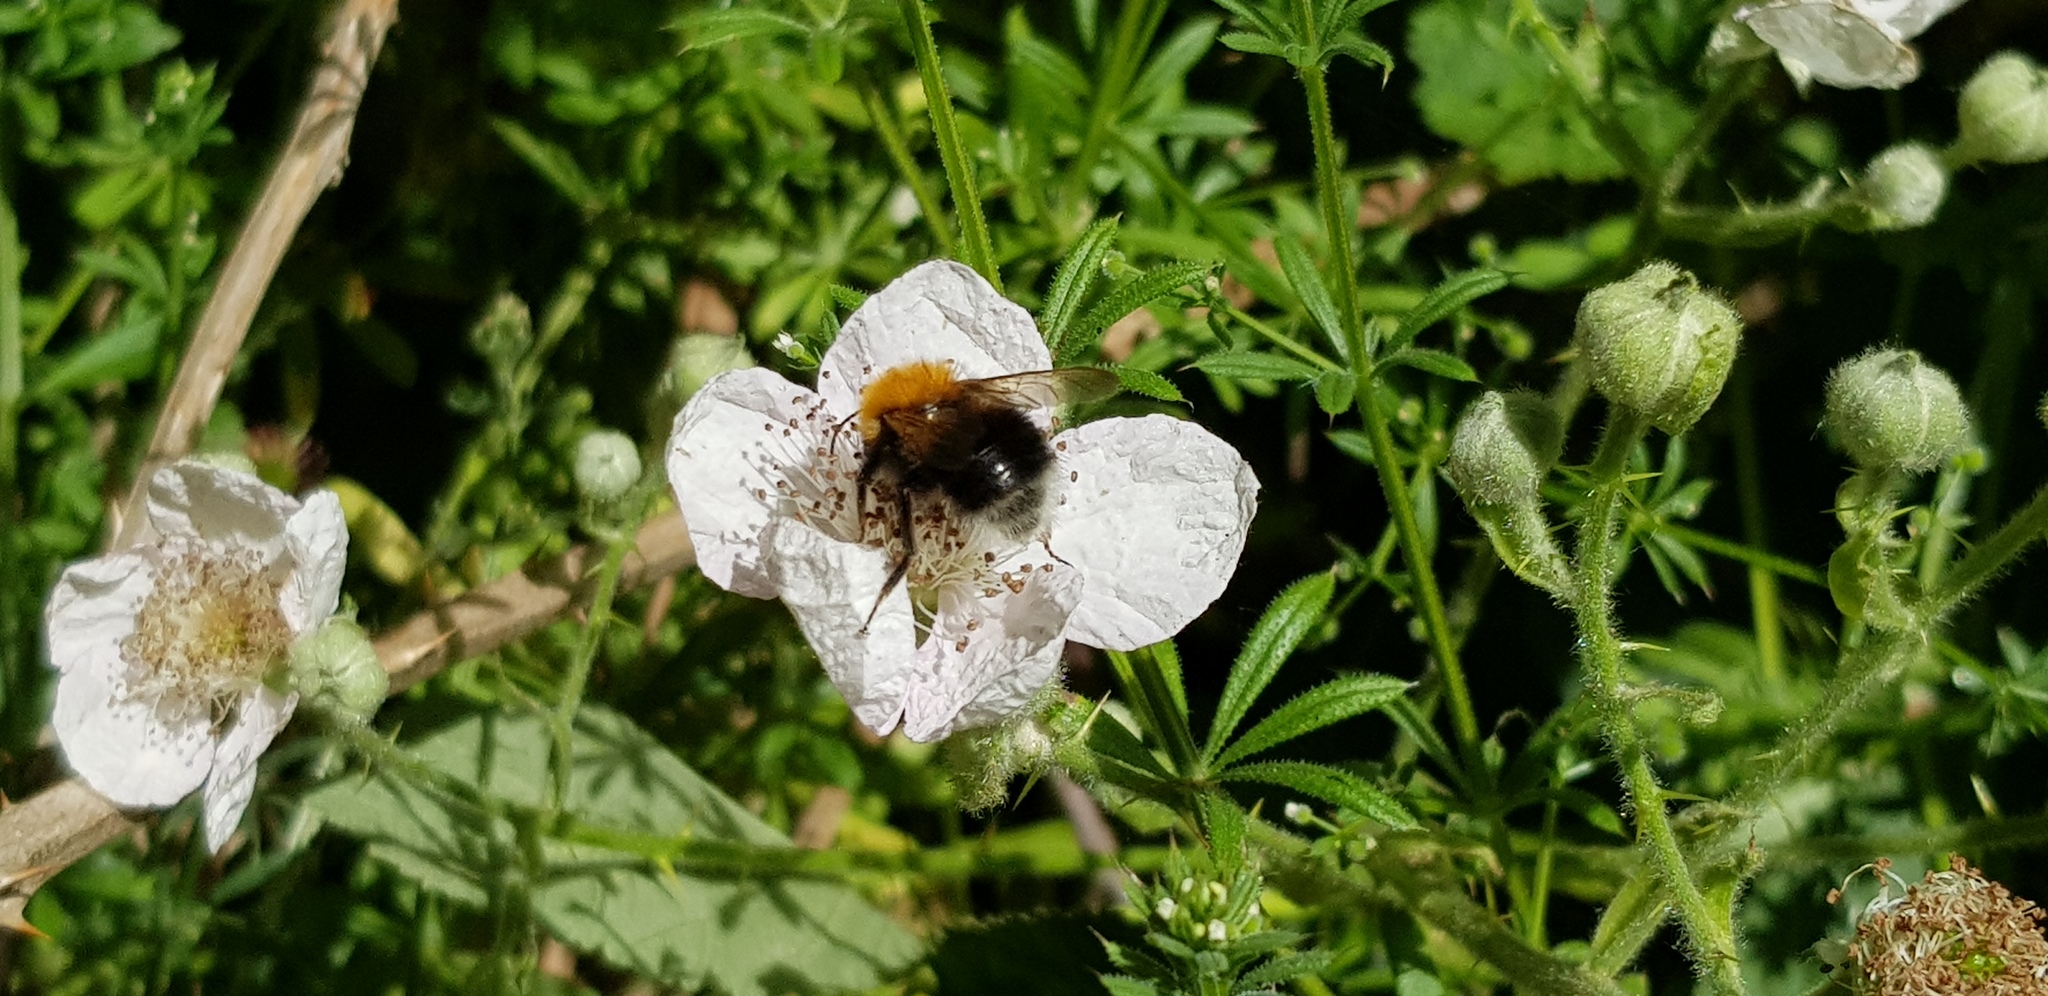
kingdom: Animalia
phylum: Arthropoda
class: Insecta
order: Hymenoptera
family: Apidae
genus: Bombus
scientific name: Bombus hypnorum
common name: New garden bumblebee
